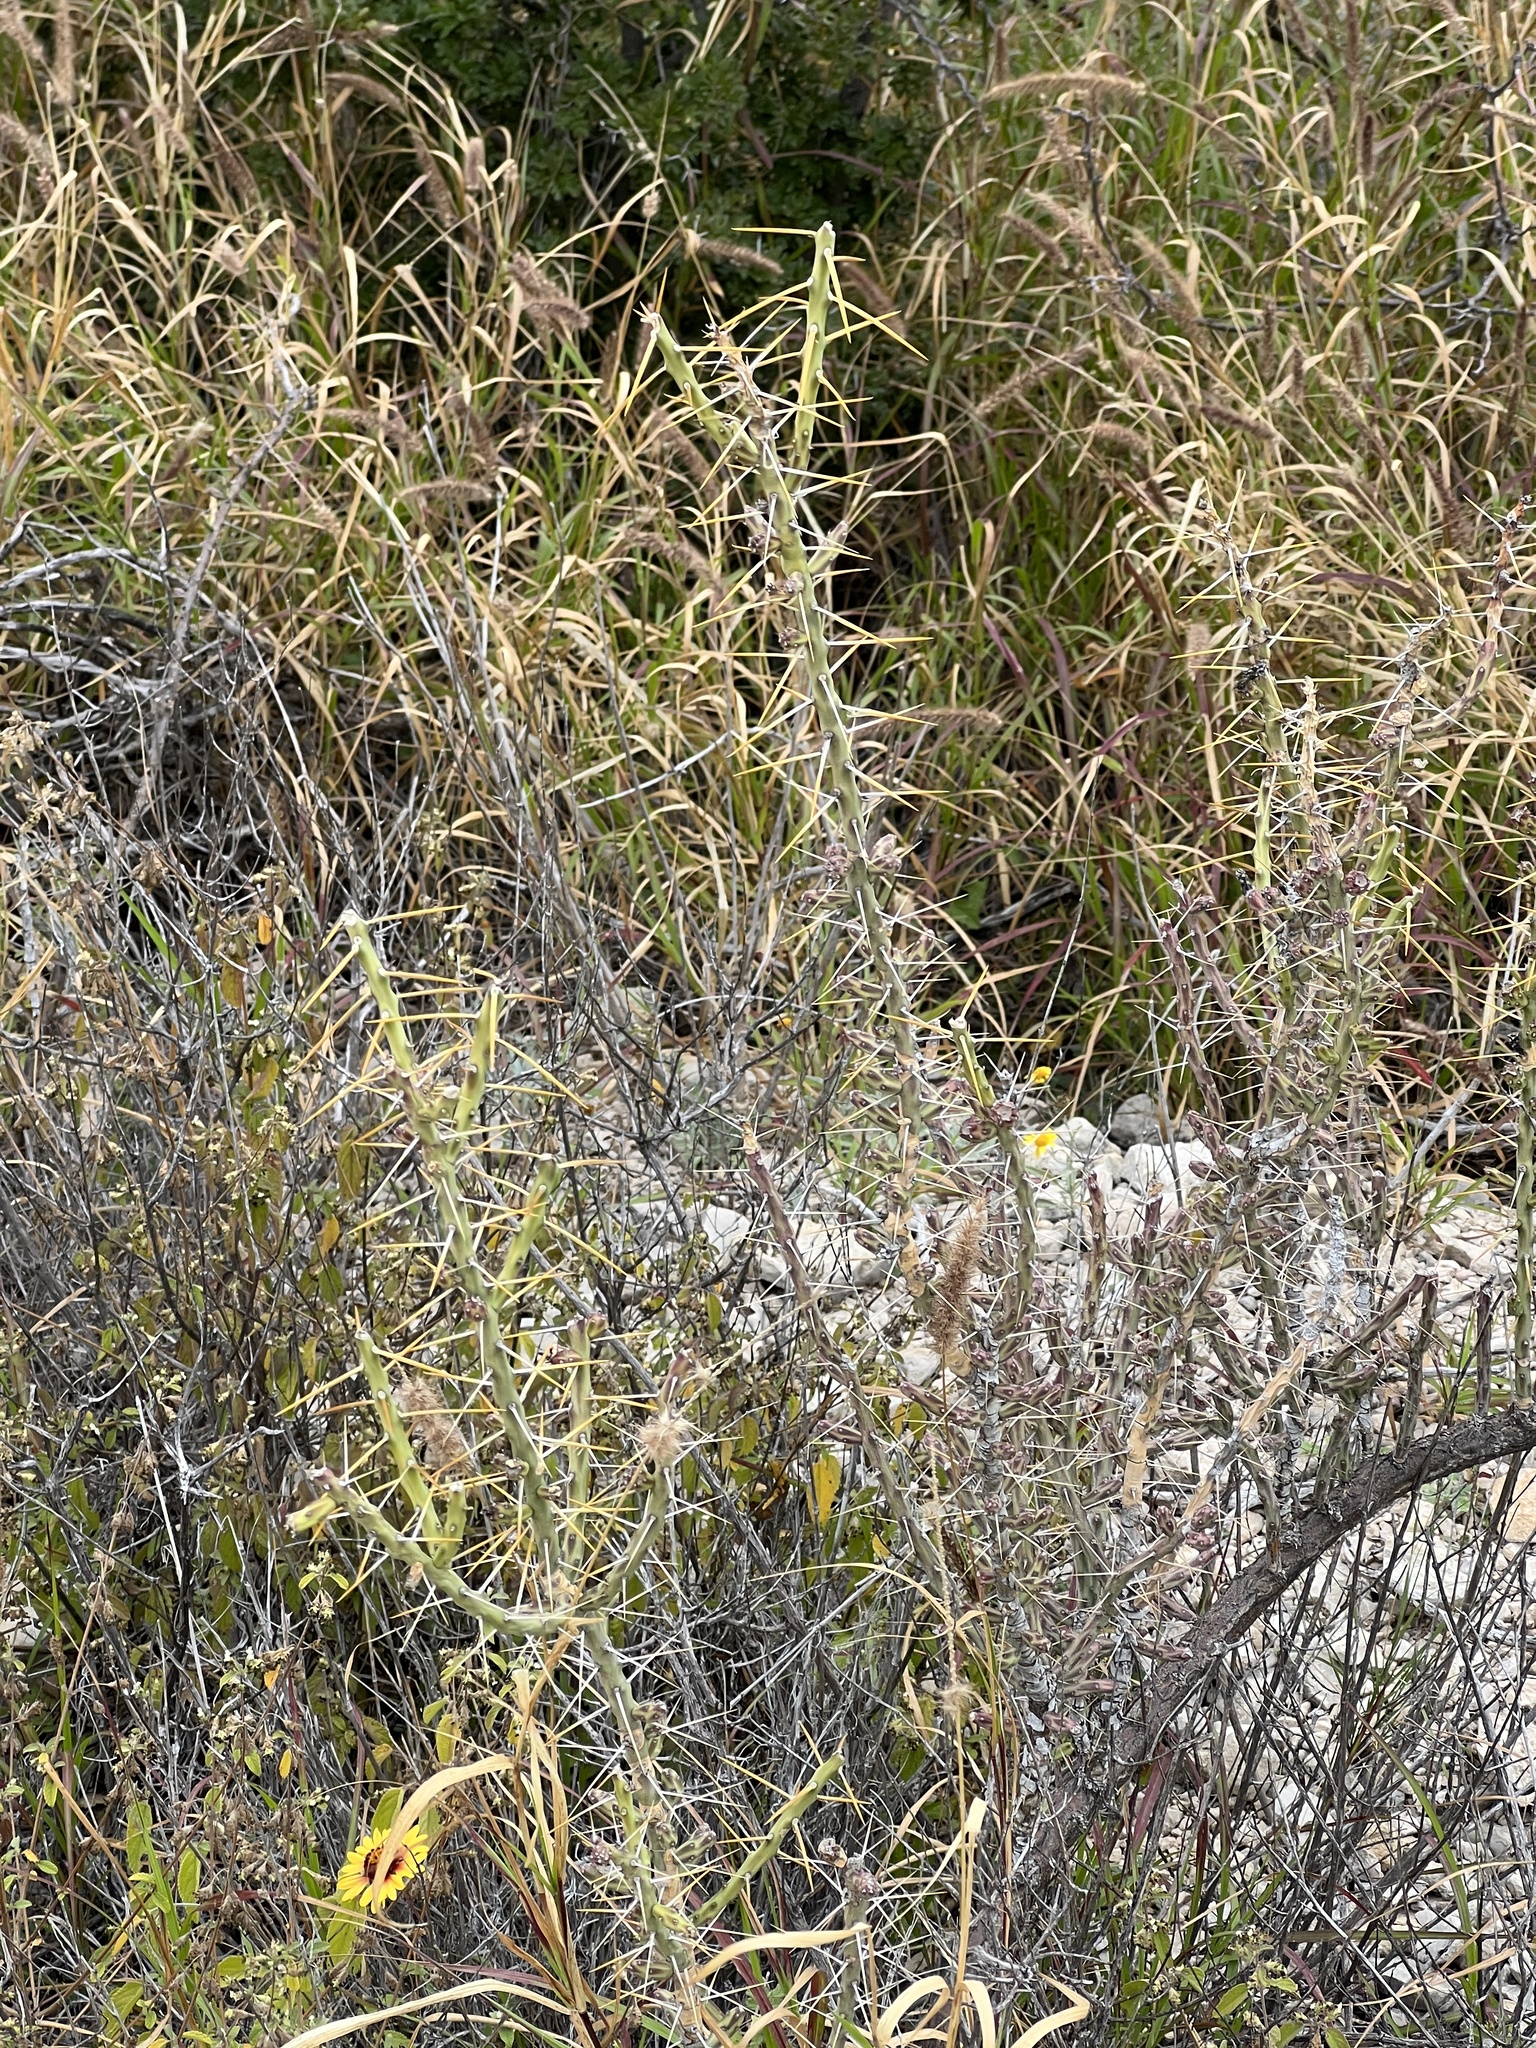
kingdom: Plantae
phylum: Tracheophyta
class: Magnoliopsida
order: Caryophyllales
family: Cactaceae
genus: Cylindropuntia
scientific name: Cylindropuntia leptocaulis
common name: Christmas cactus
